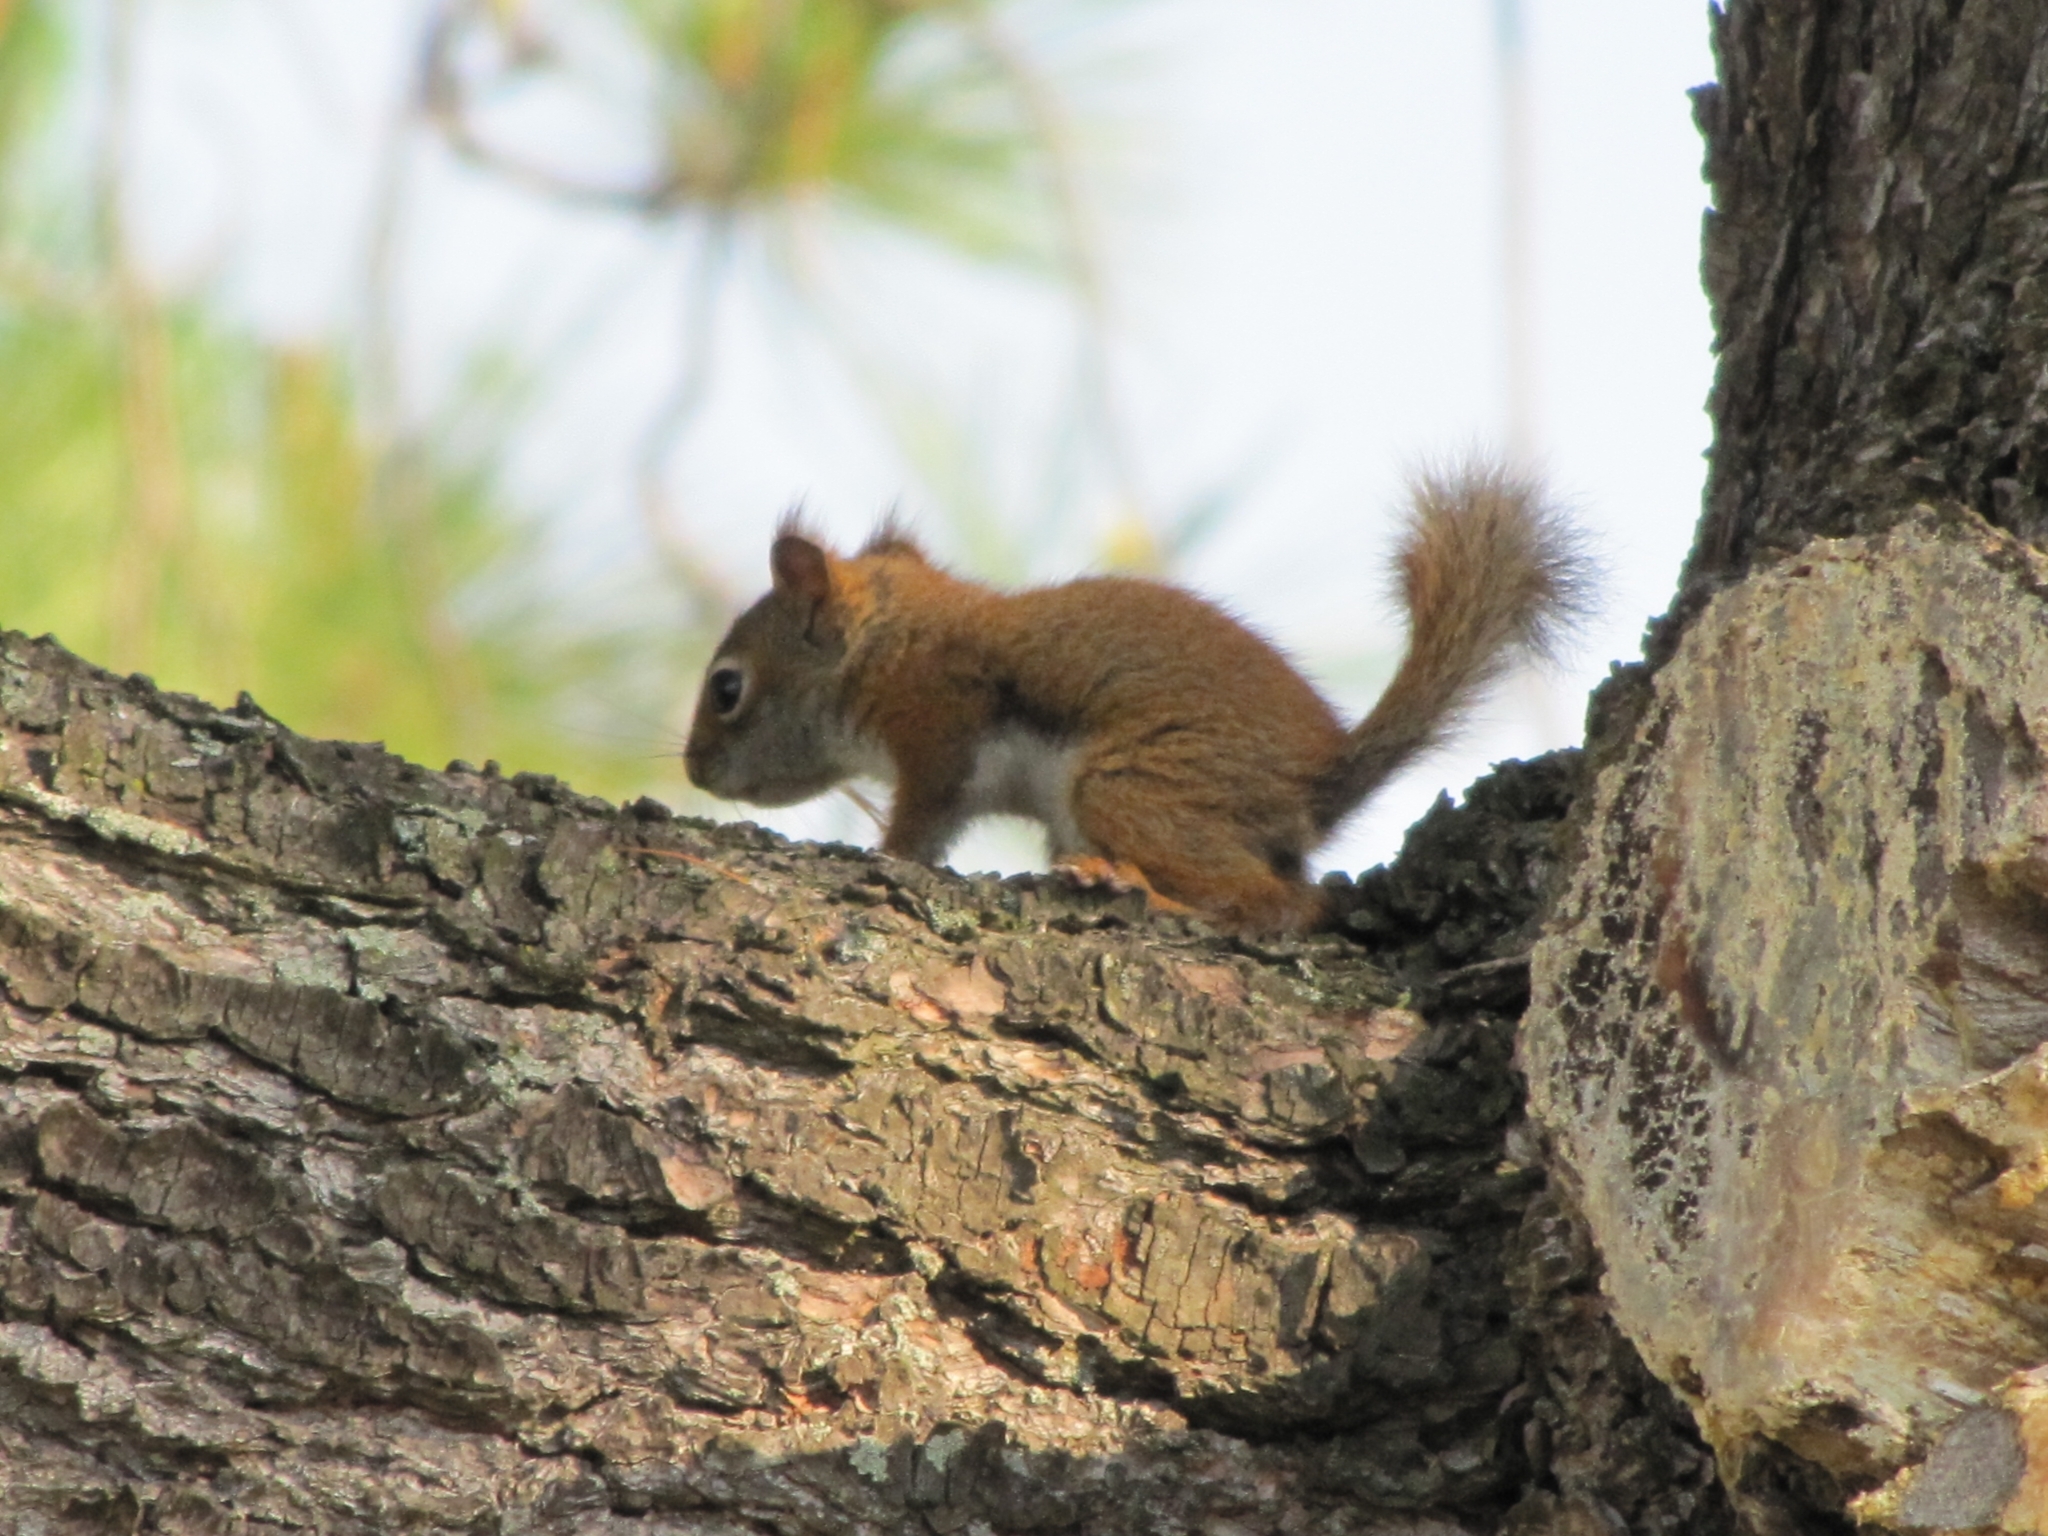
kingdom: Animalia
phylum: Chordata
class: Mammalia
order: Rodentia
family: Sciuridae
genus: Tamiasciurus
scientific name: Tamiasciurus hudsonicus
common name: Red squirrel
